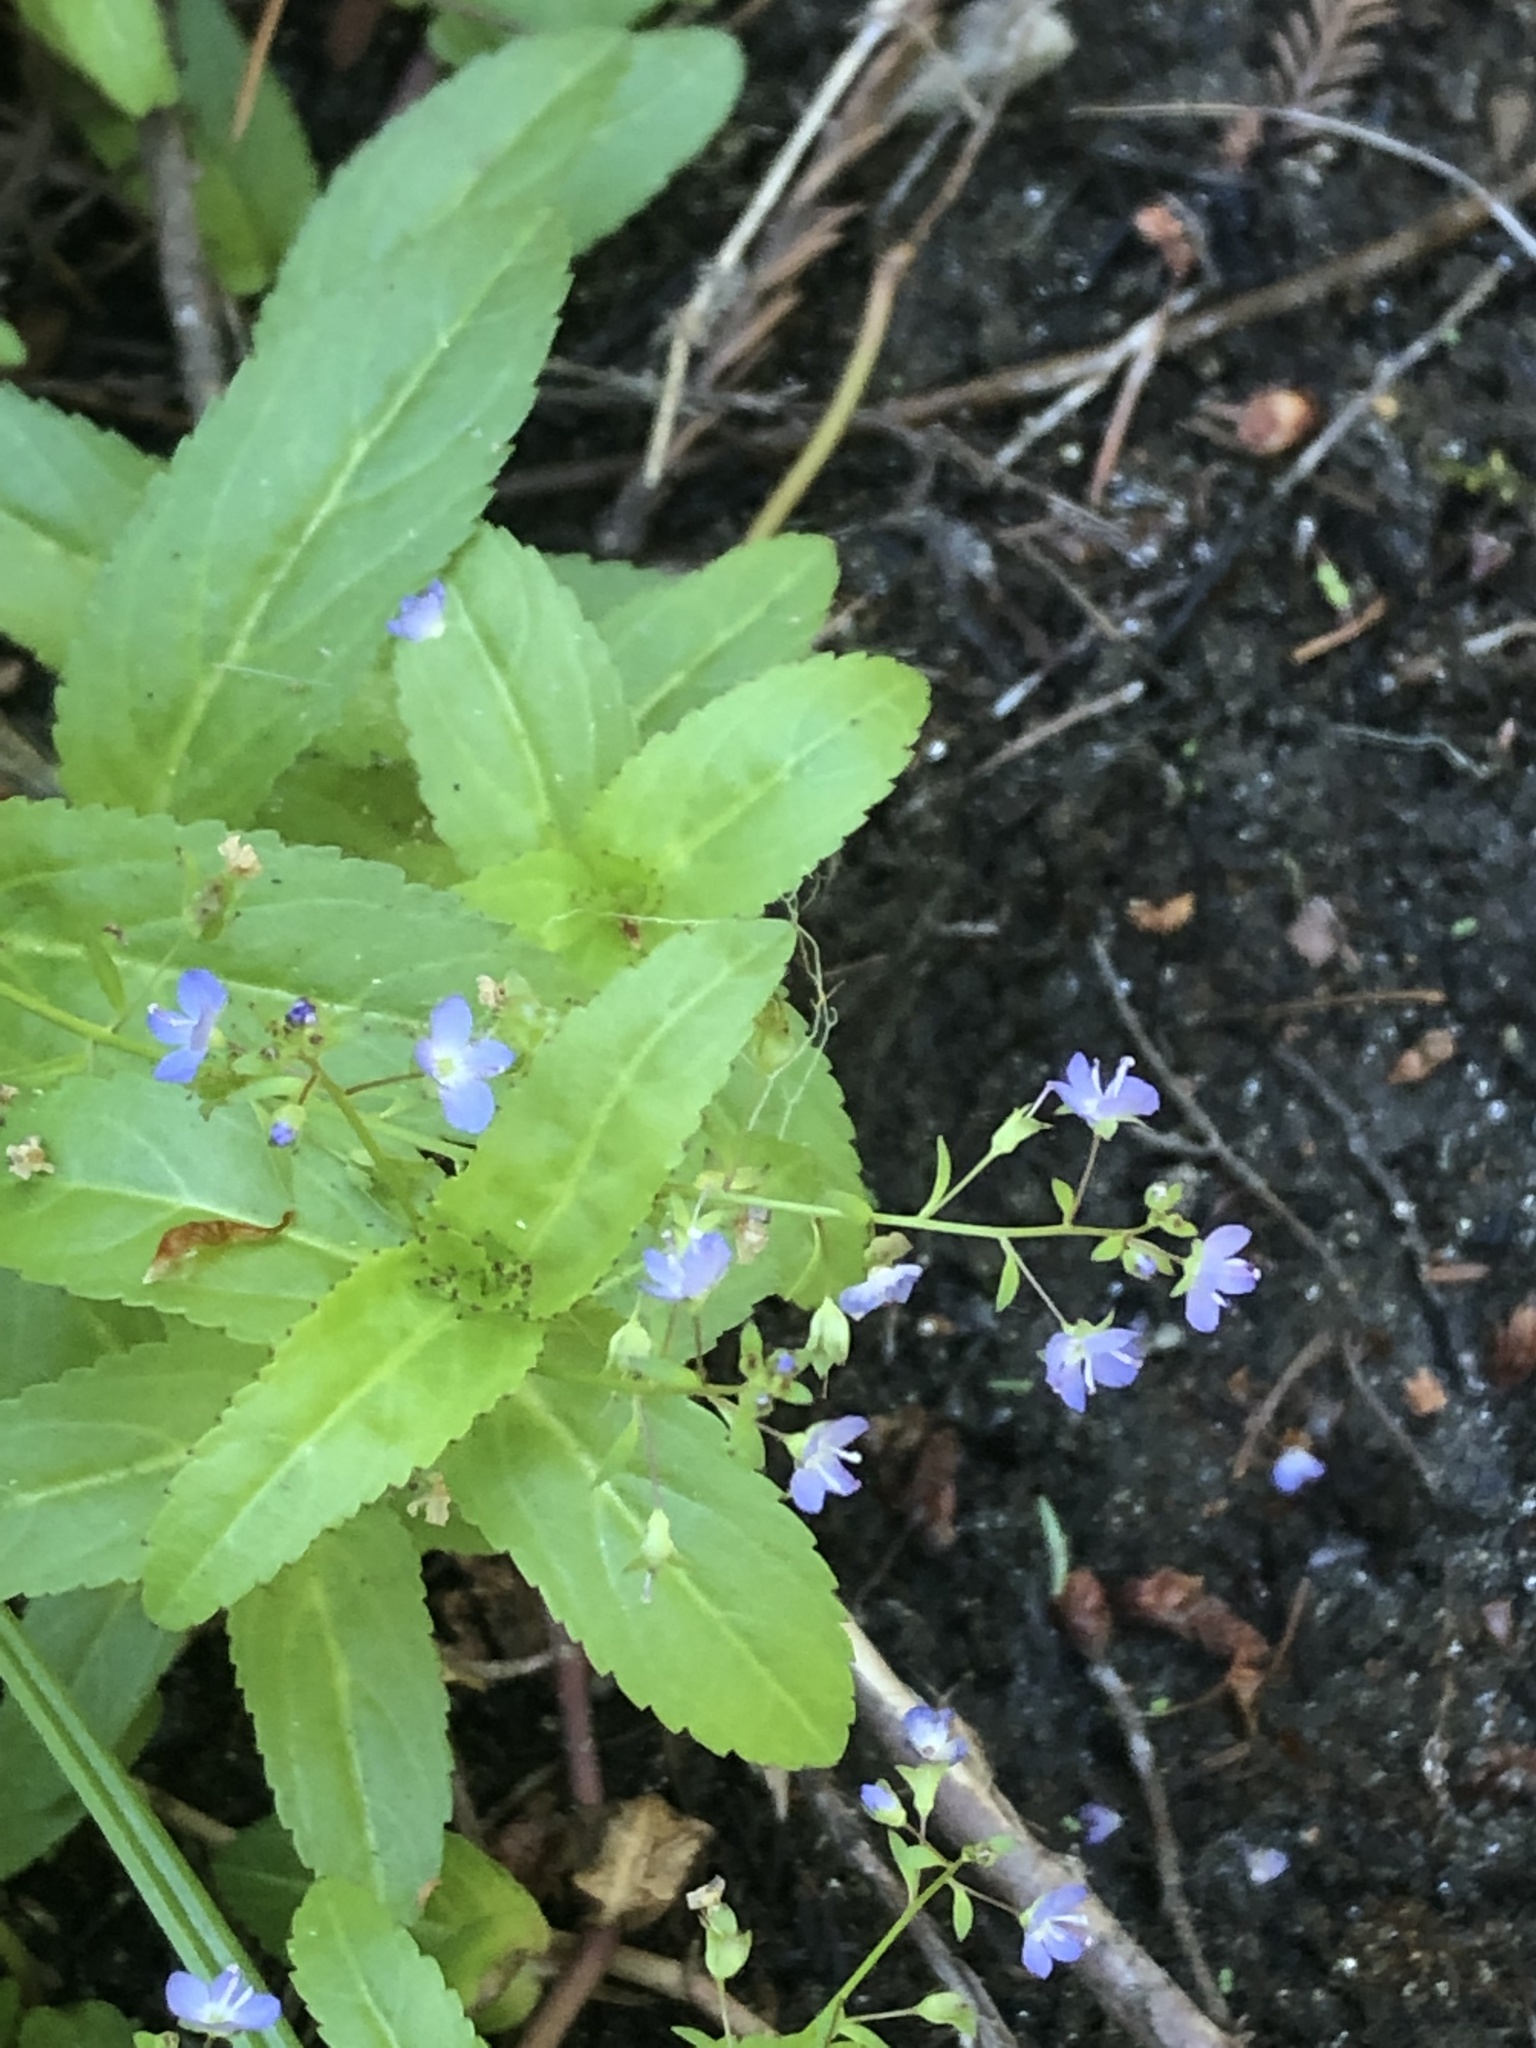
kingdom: Plantae
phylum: Tracheophyta
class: Magnoliopsida
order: Lamiales
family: Plantaginaceae
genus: Veronica
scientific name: Veronica americana
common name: American brooklime
